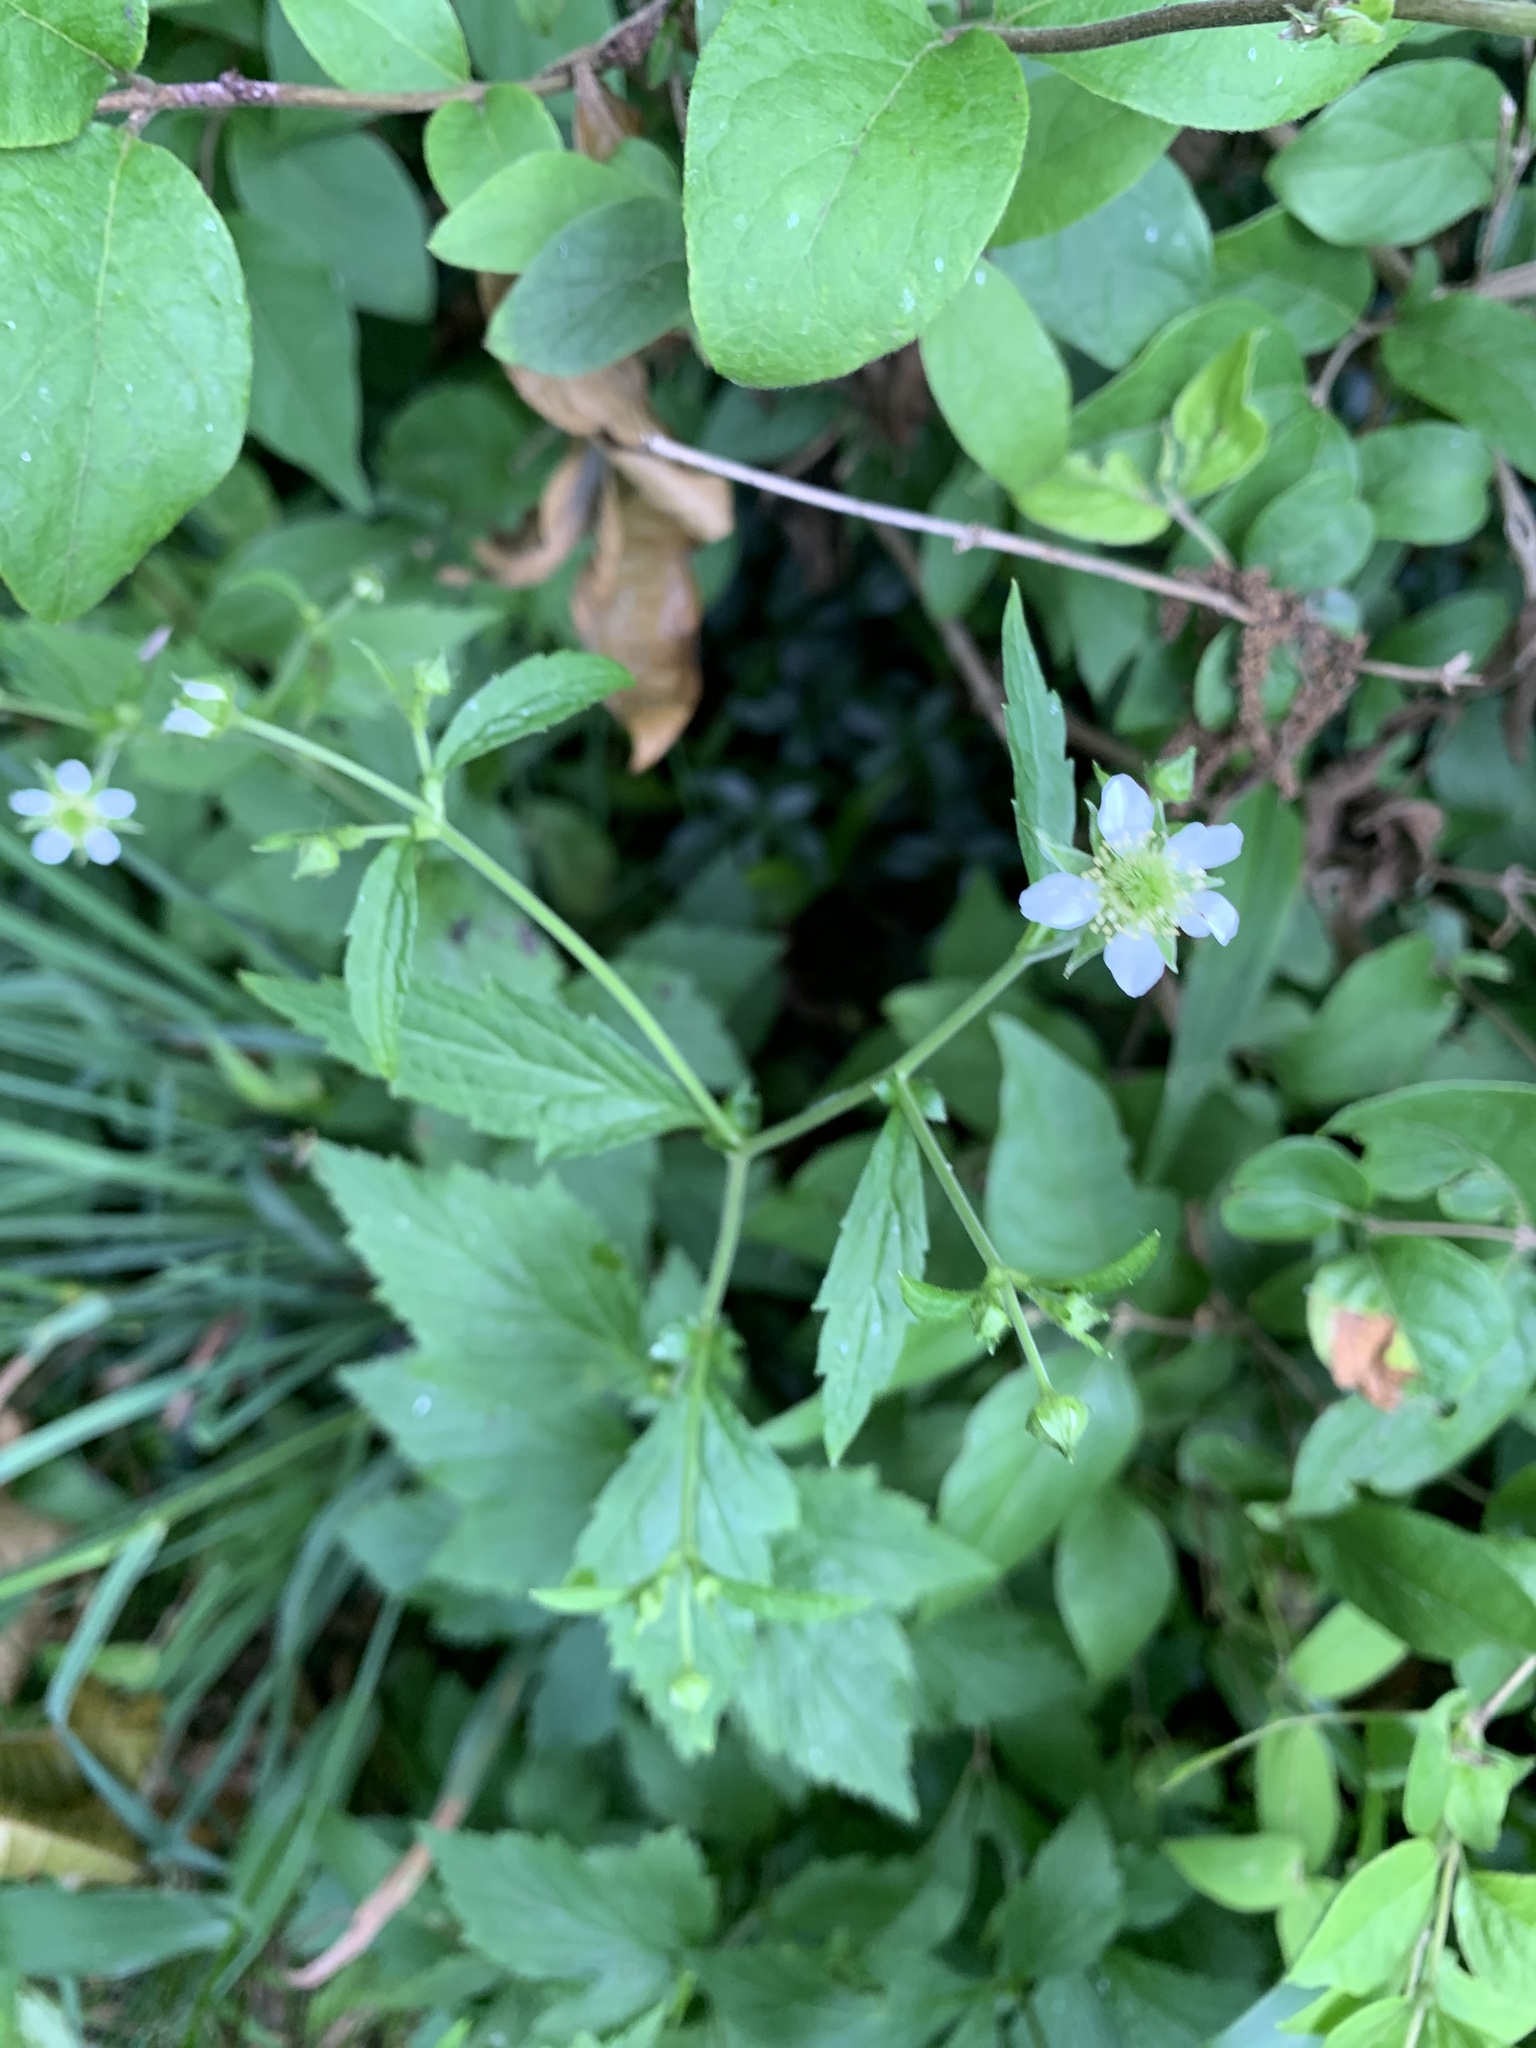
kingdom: Plantae
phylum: Tracheophyta
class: Magnoliopsida
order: Rosales
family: Rosaceae
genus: Geum
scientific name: Geum canadense
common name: White avens
